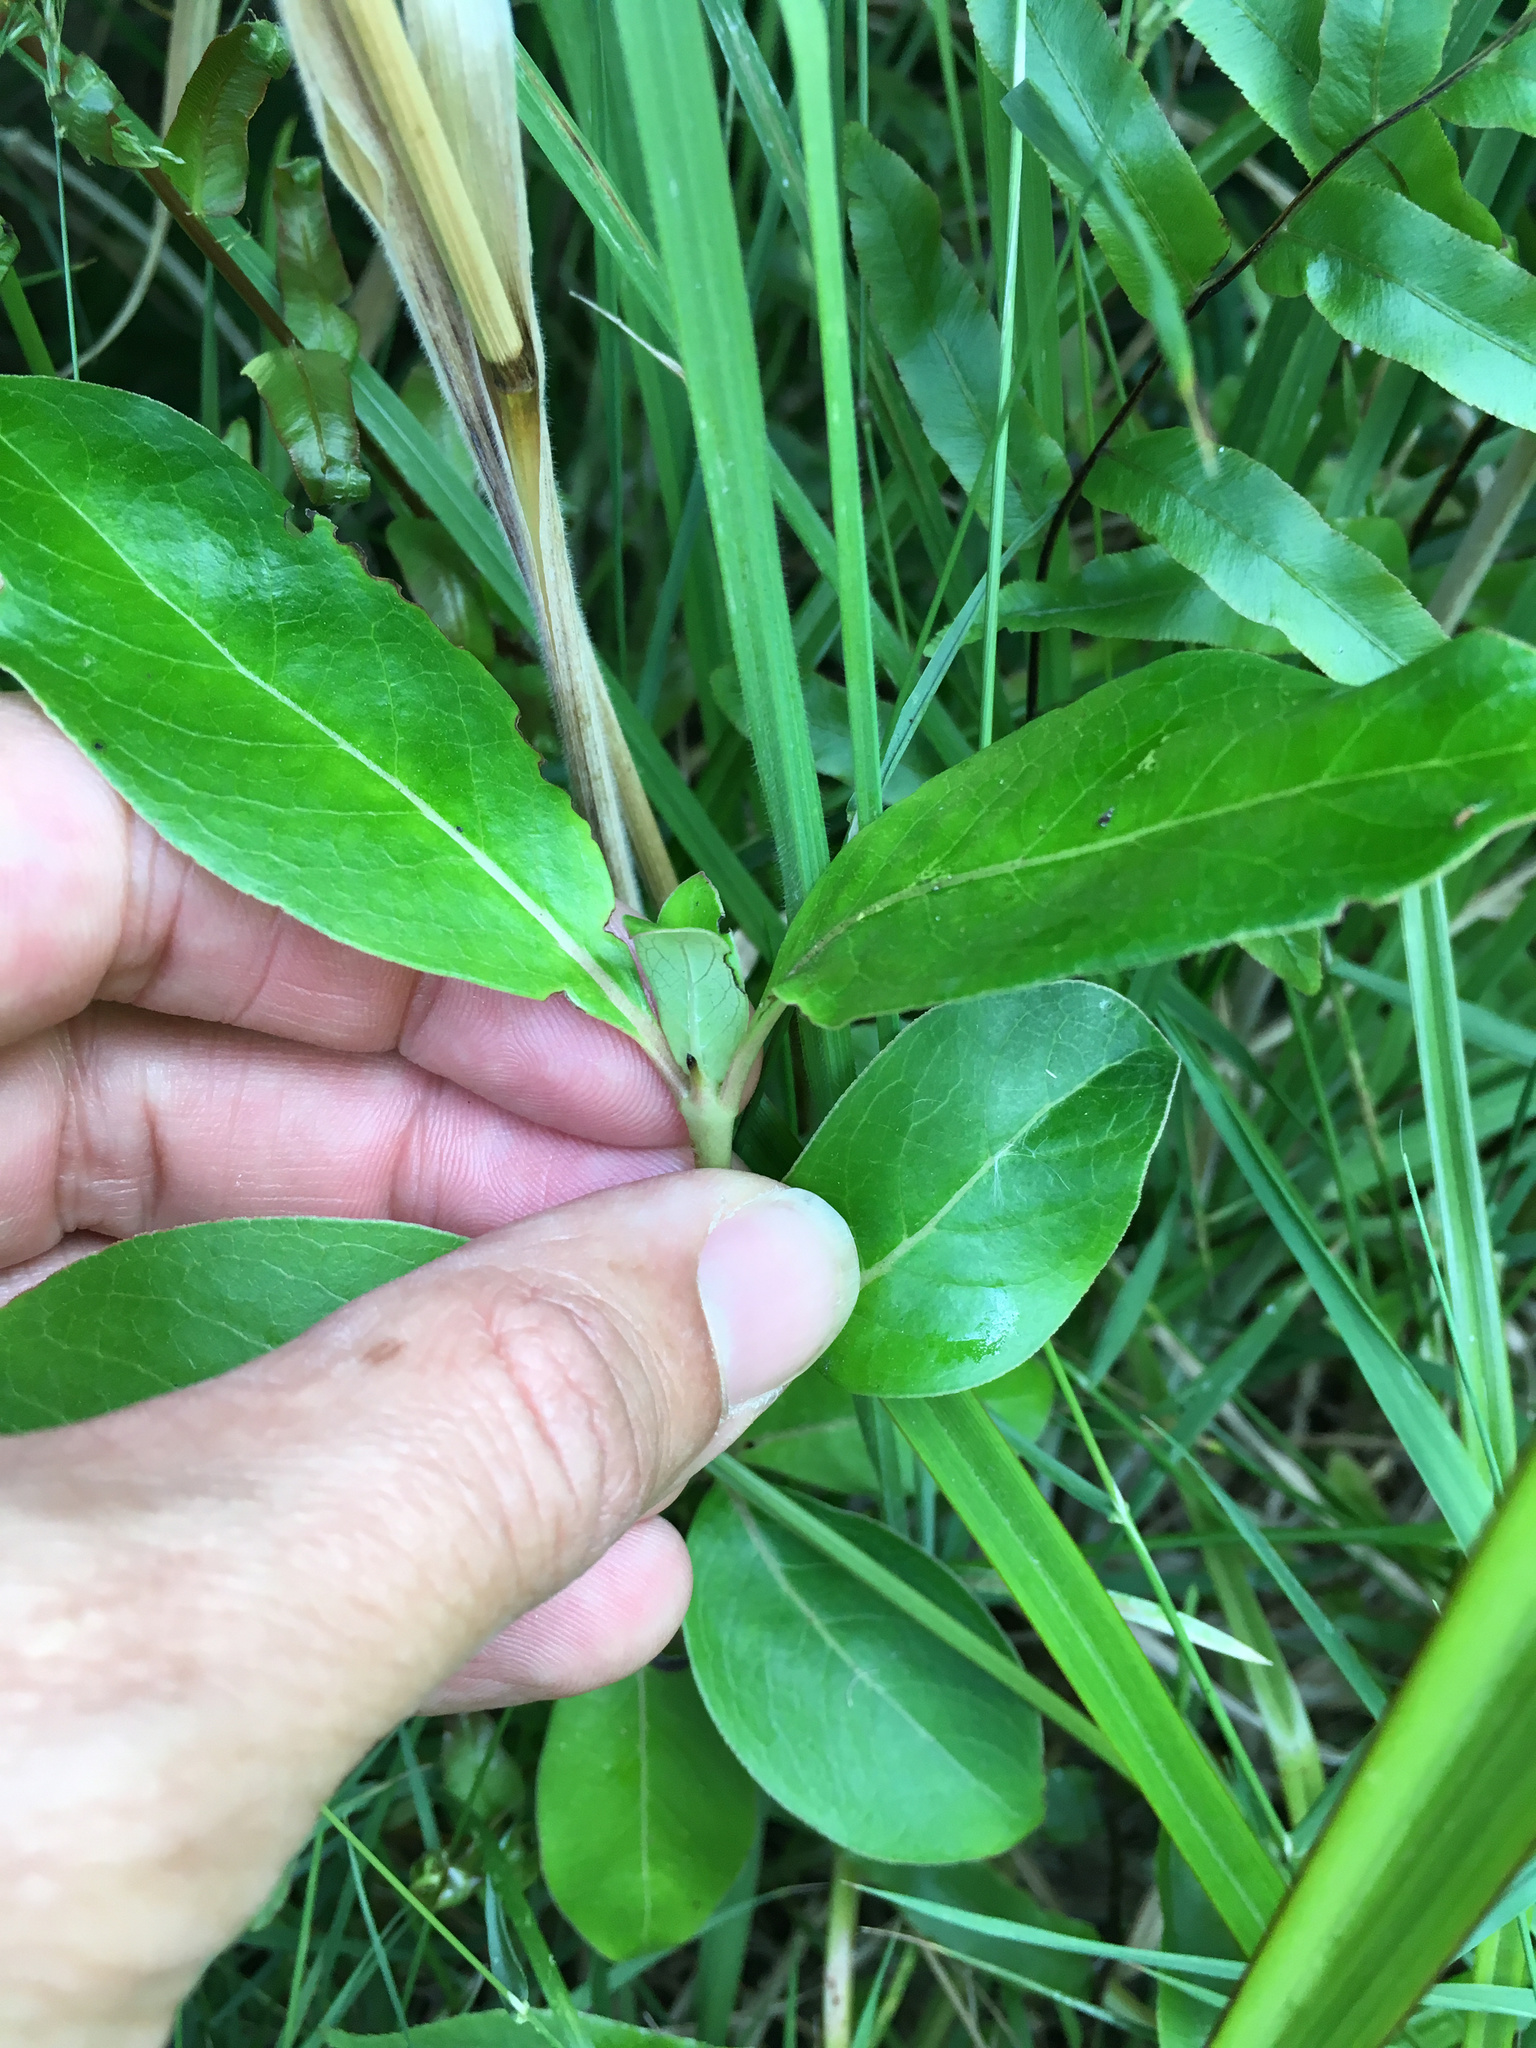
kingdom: Plantae
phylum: Tracheophyta
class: Magnoliopsida
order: Gentianales
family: Rubiaceae
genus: Coprosma
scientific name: Coprosma robusta
